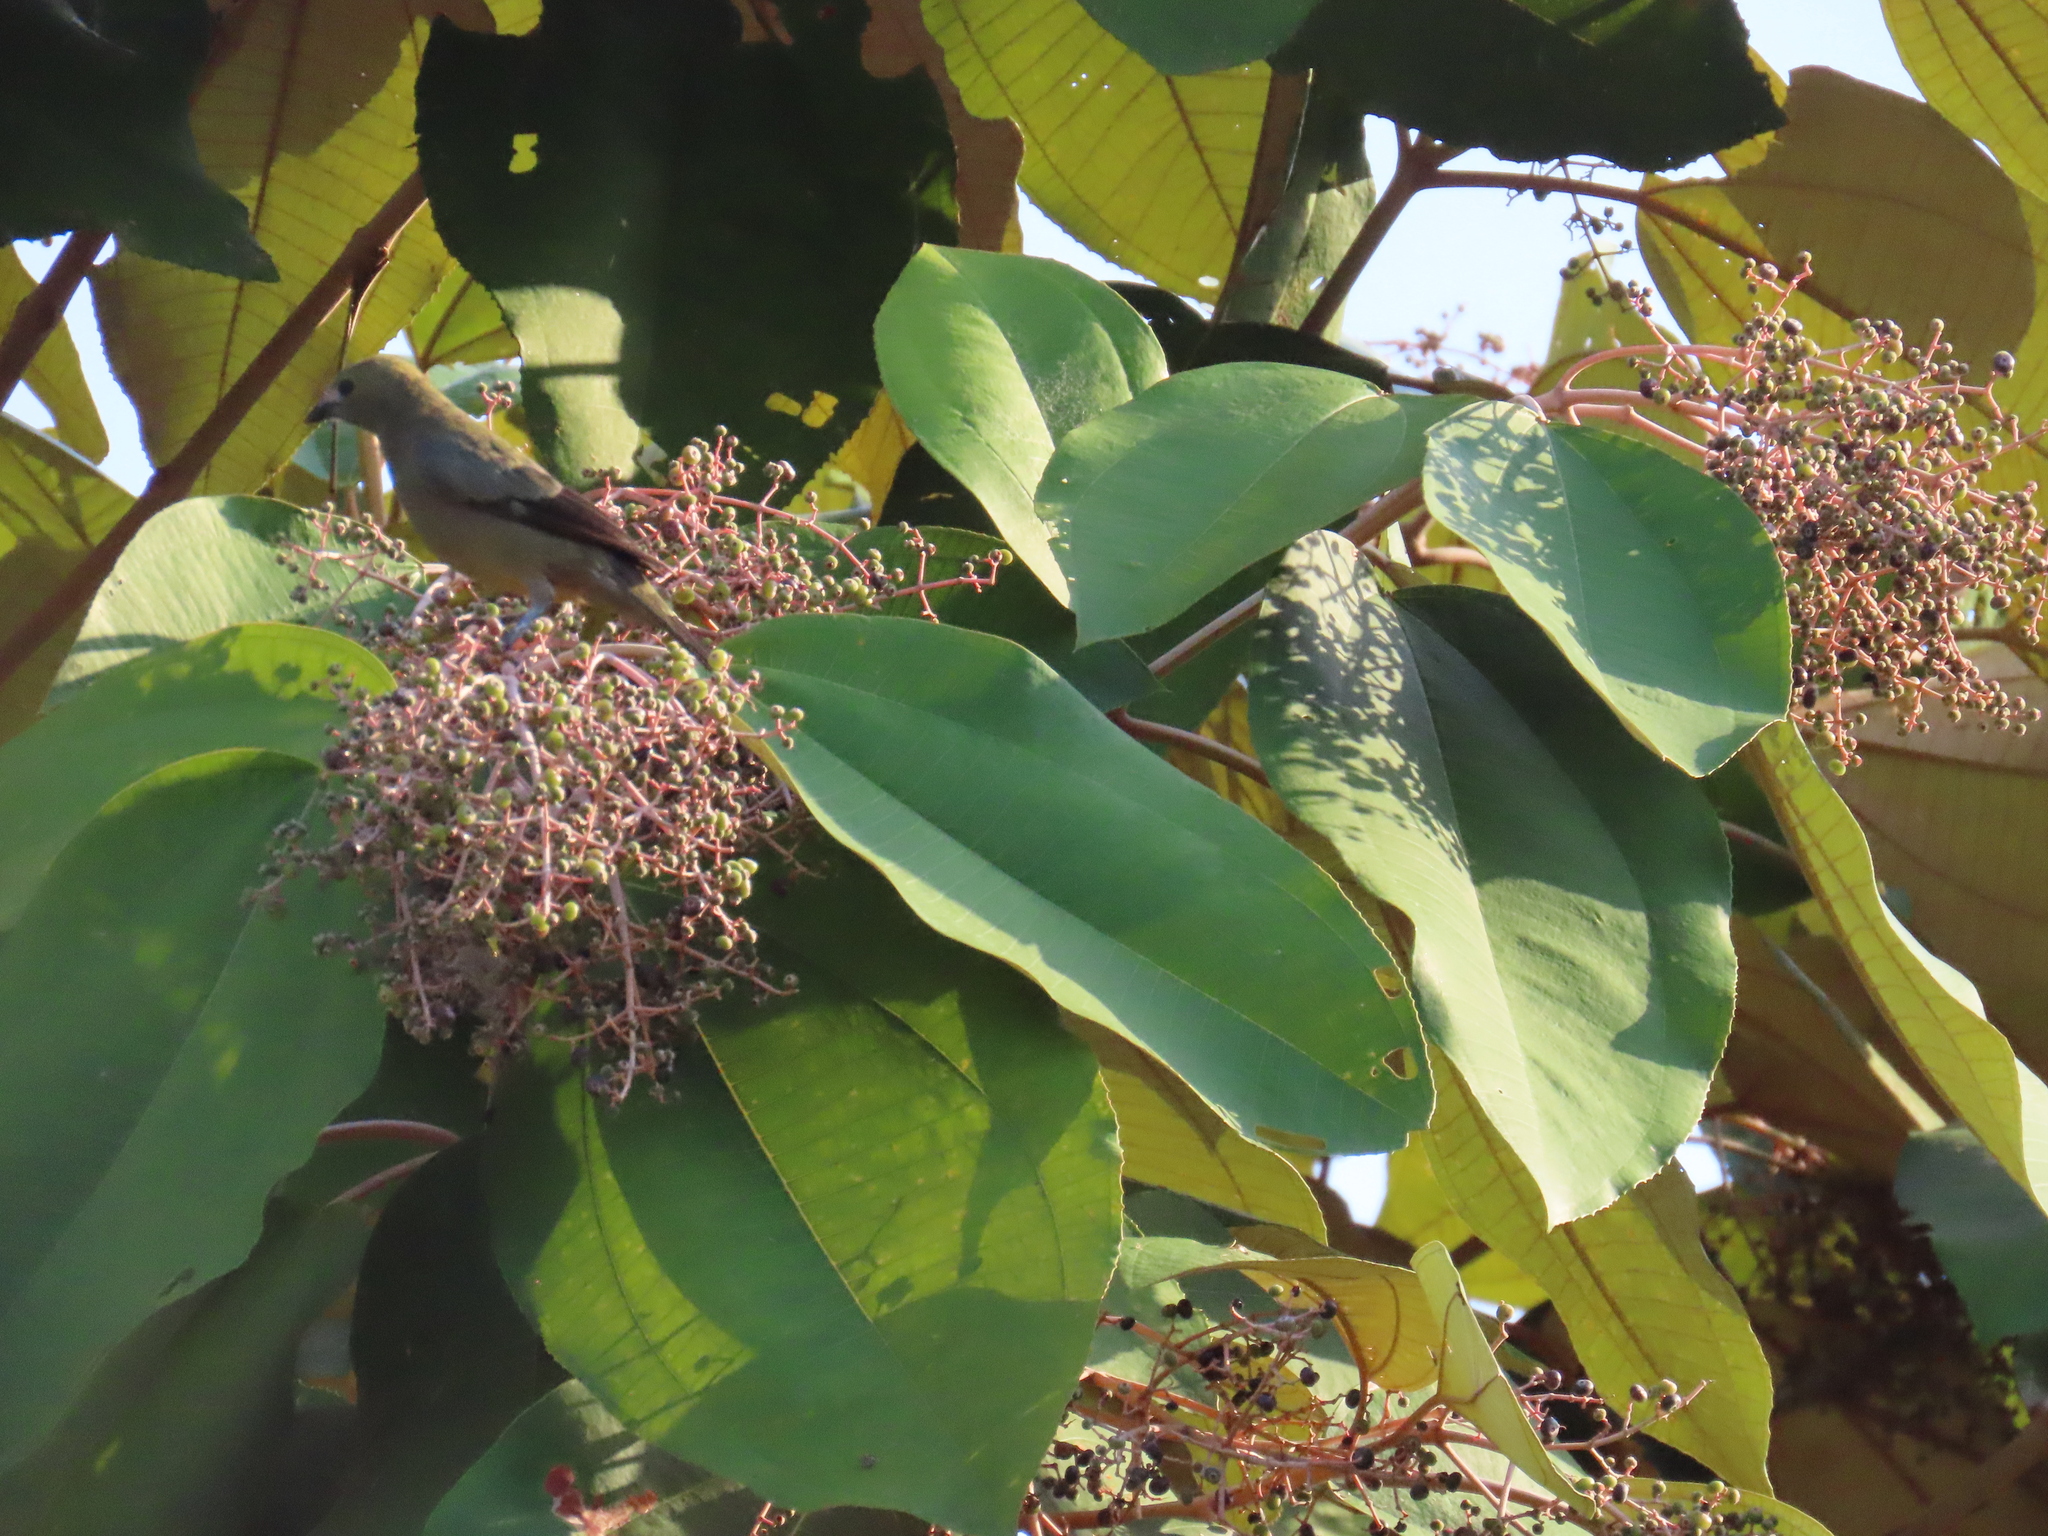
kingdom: Animalia
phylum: Chordata
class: Aves
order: Passeriformes
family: Thraupidae
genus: Thraupis
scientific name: Thraupis palmarum
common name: Palm tanager
